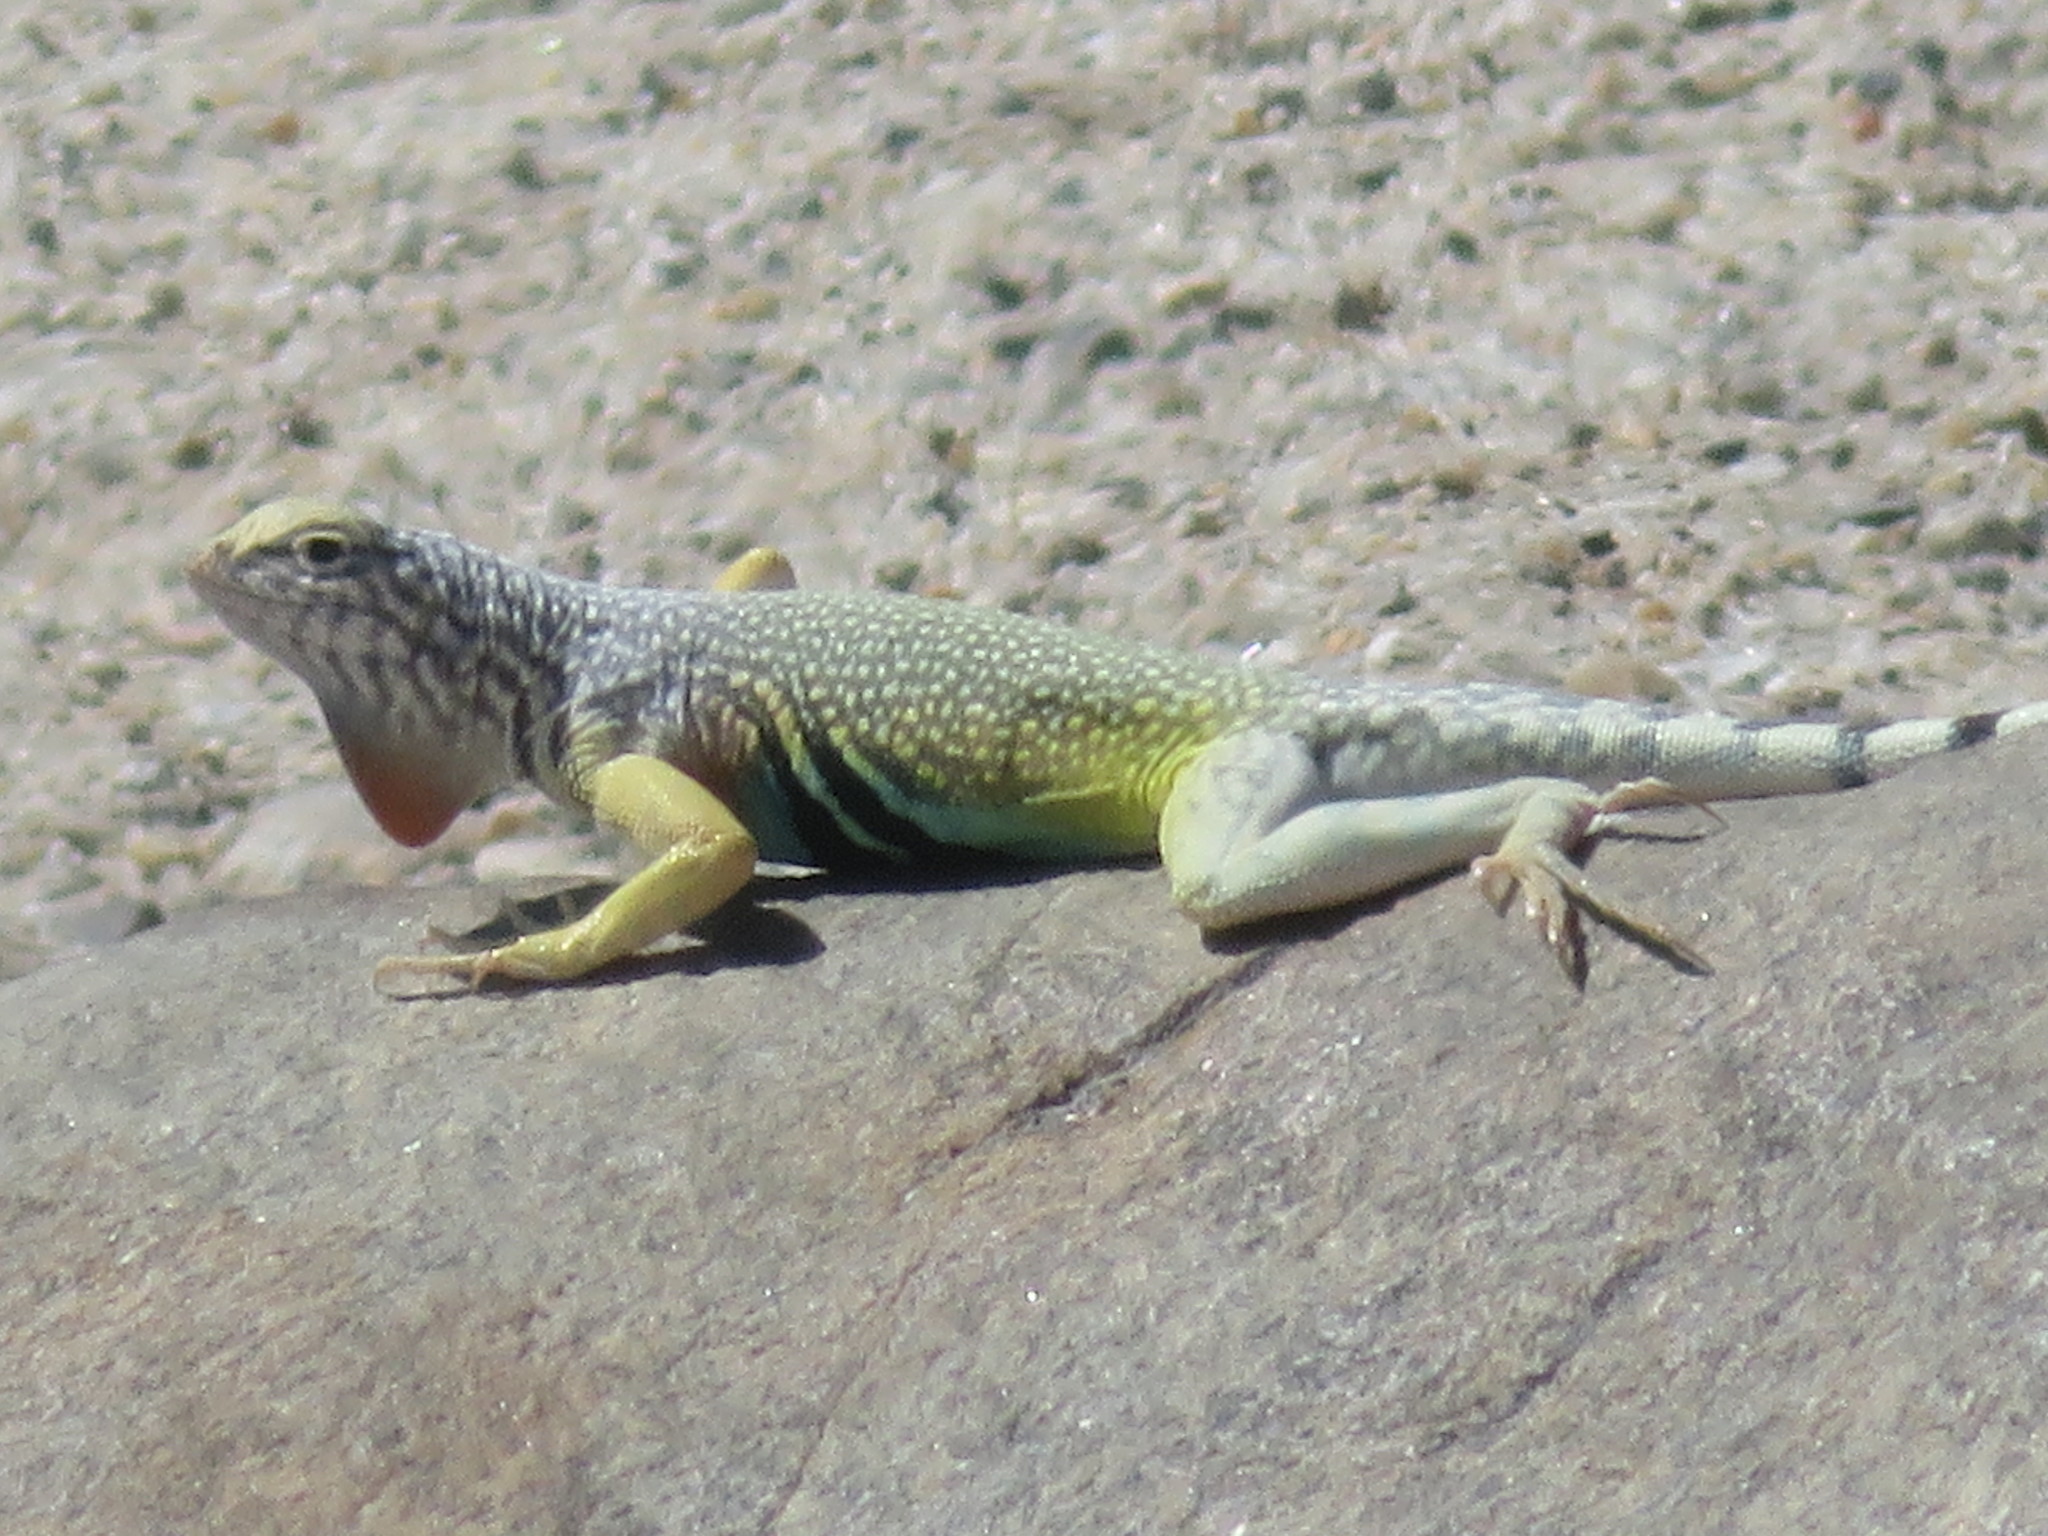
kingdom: Animalia
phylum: Chordata
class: Squamata
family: Phrynosomatidae
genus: Callisaurus
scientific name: Callisaurus draconoides
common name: Zebra-tailed lizard
